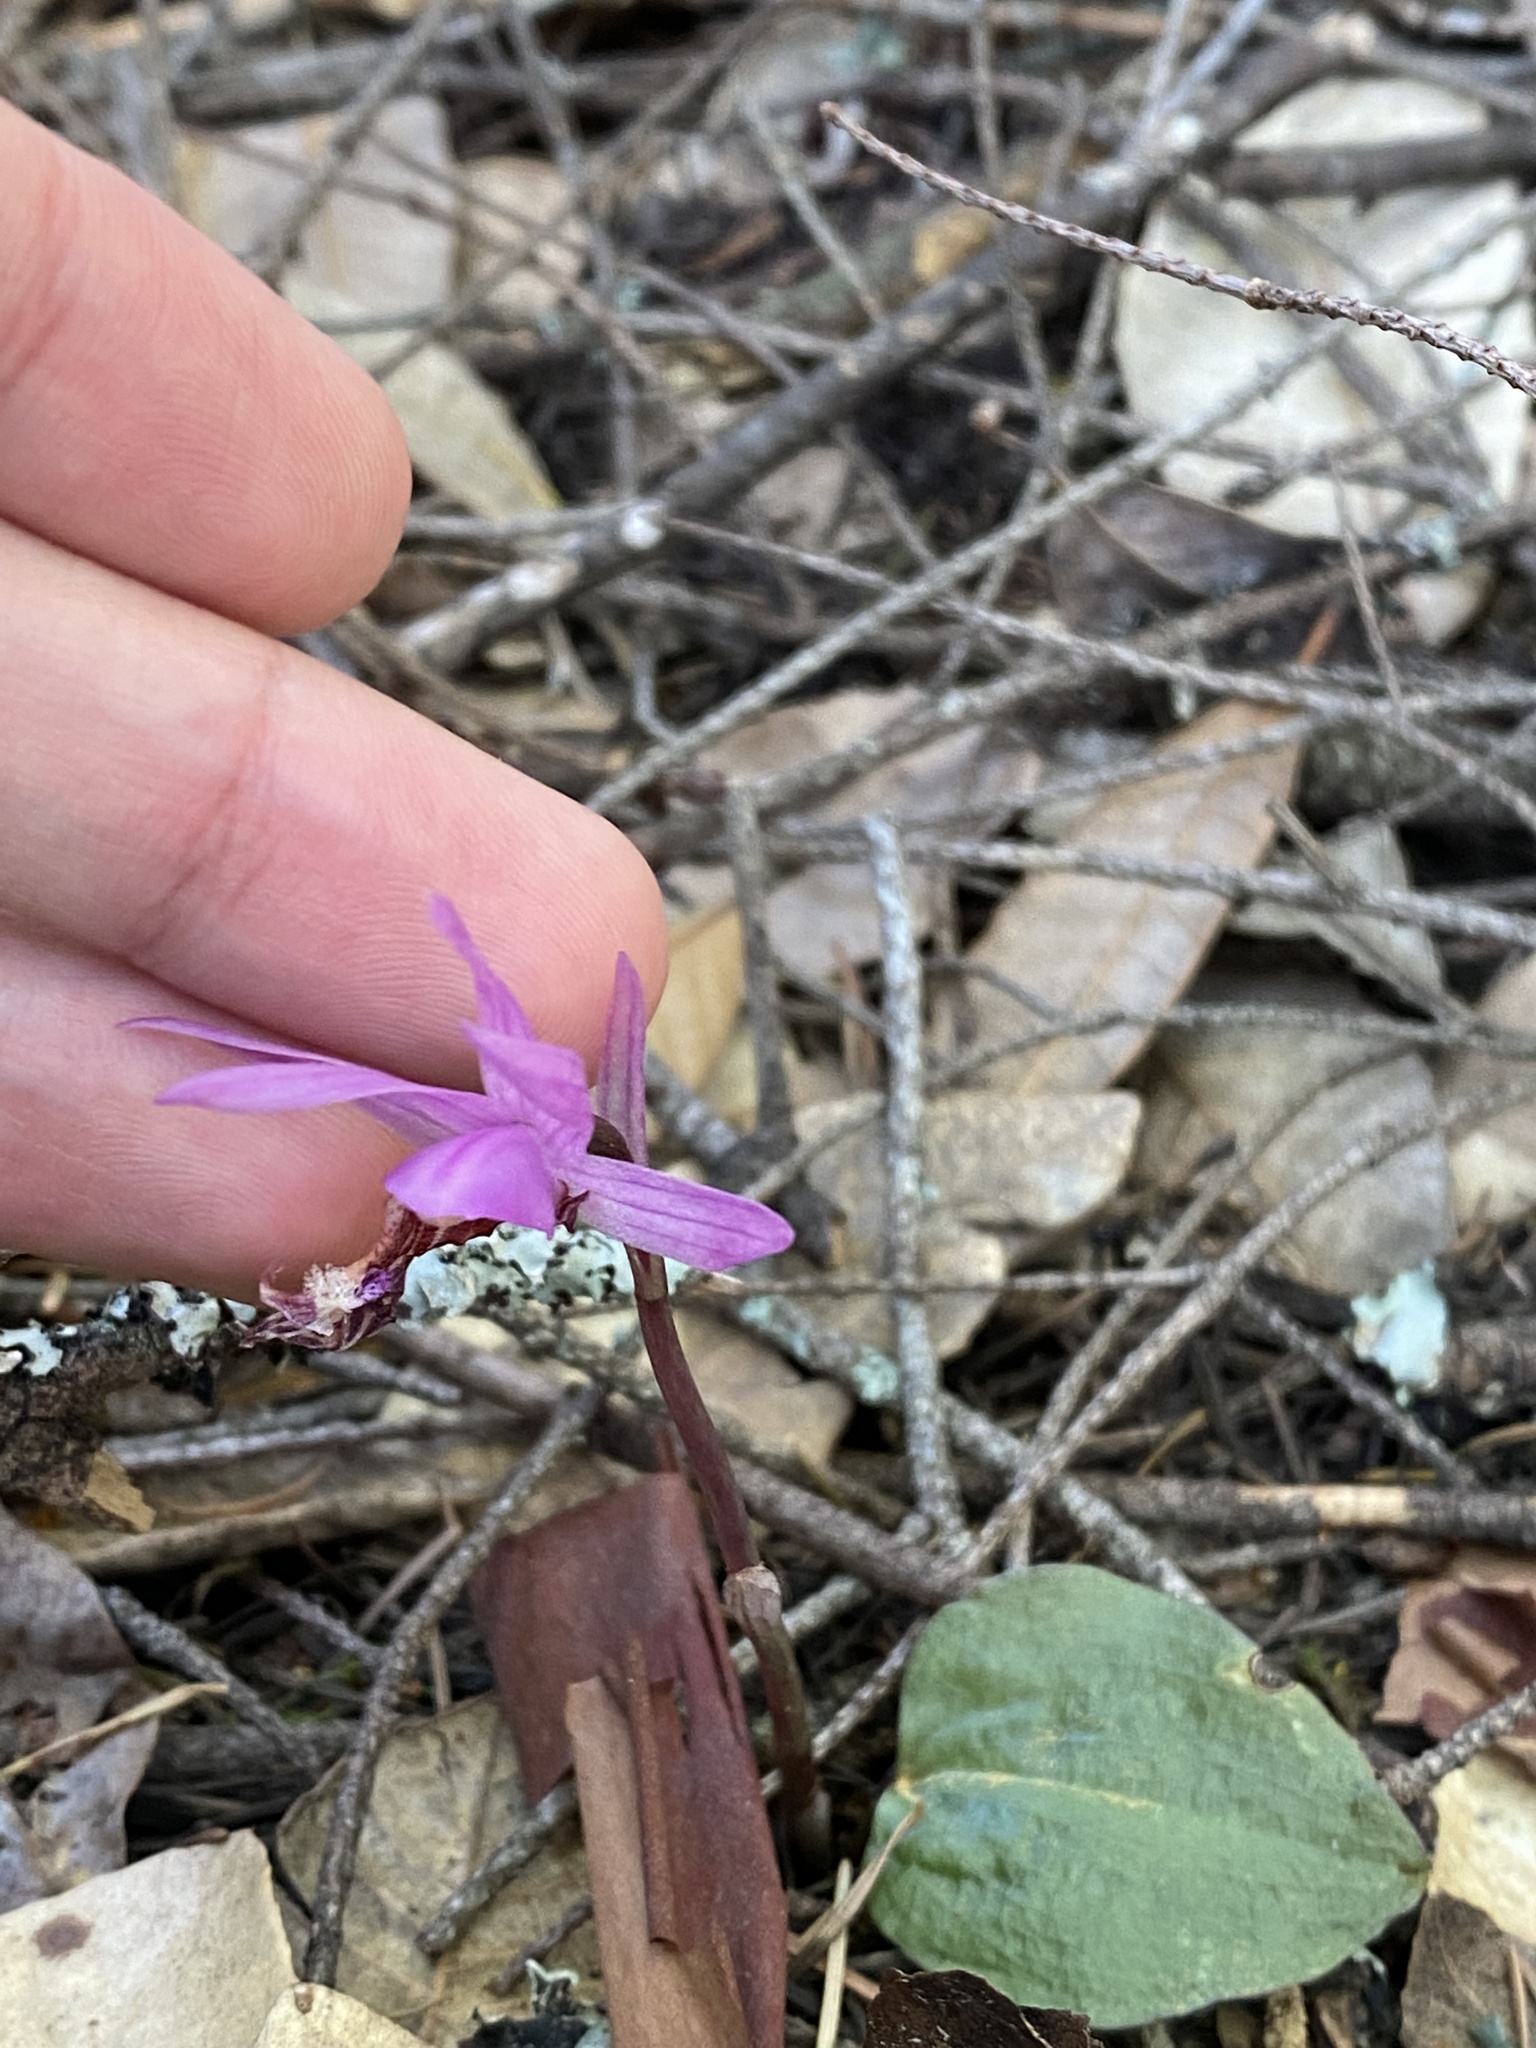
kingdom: Plantae
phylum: Tracheophyta
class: Liliopsida
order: Asparagales
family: Orchidaceae
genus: Calypso
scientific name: Calypso bulbosa
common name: Calypso
